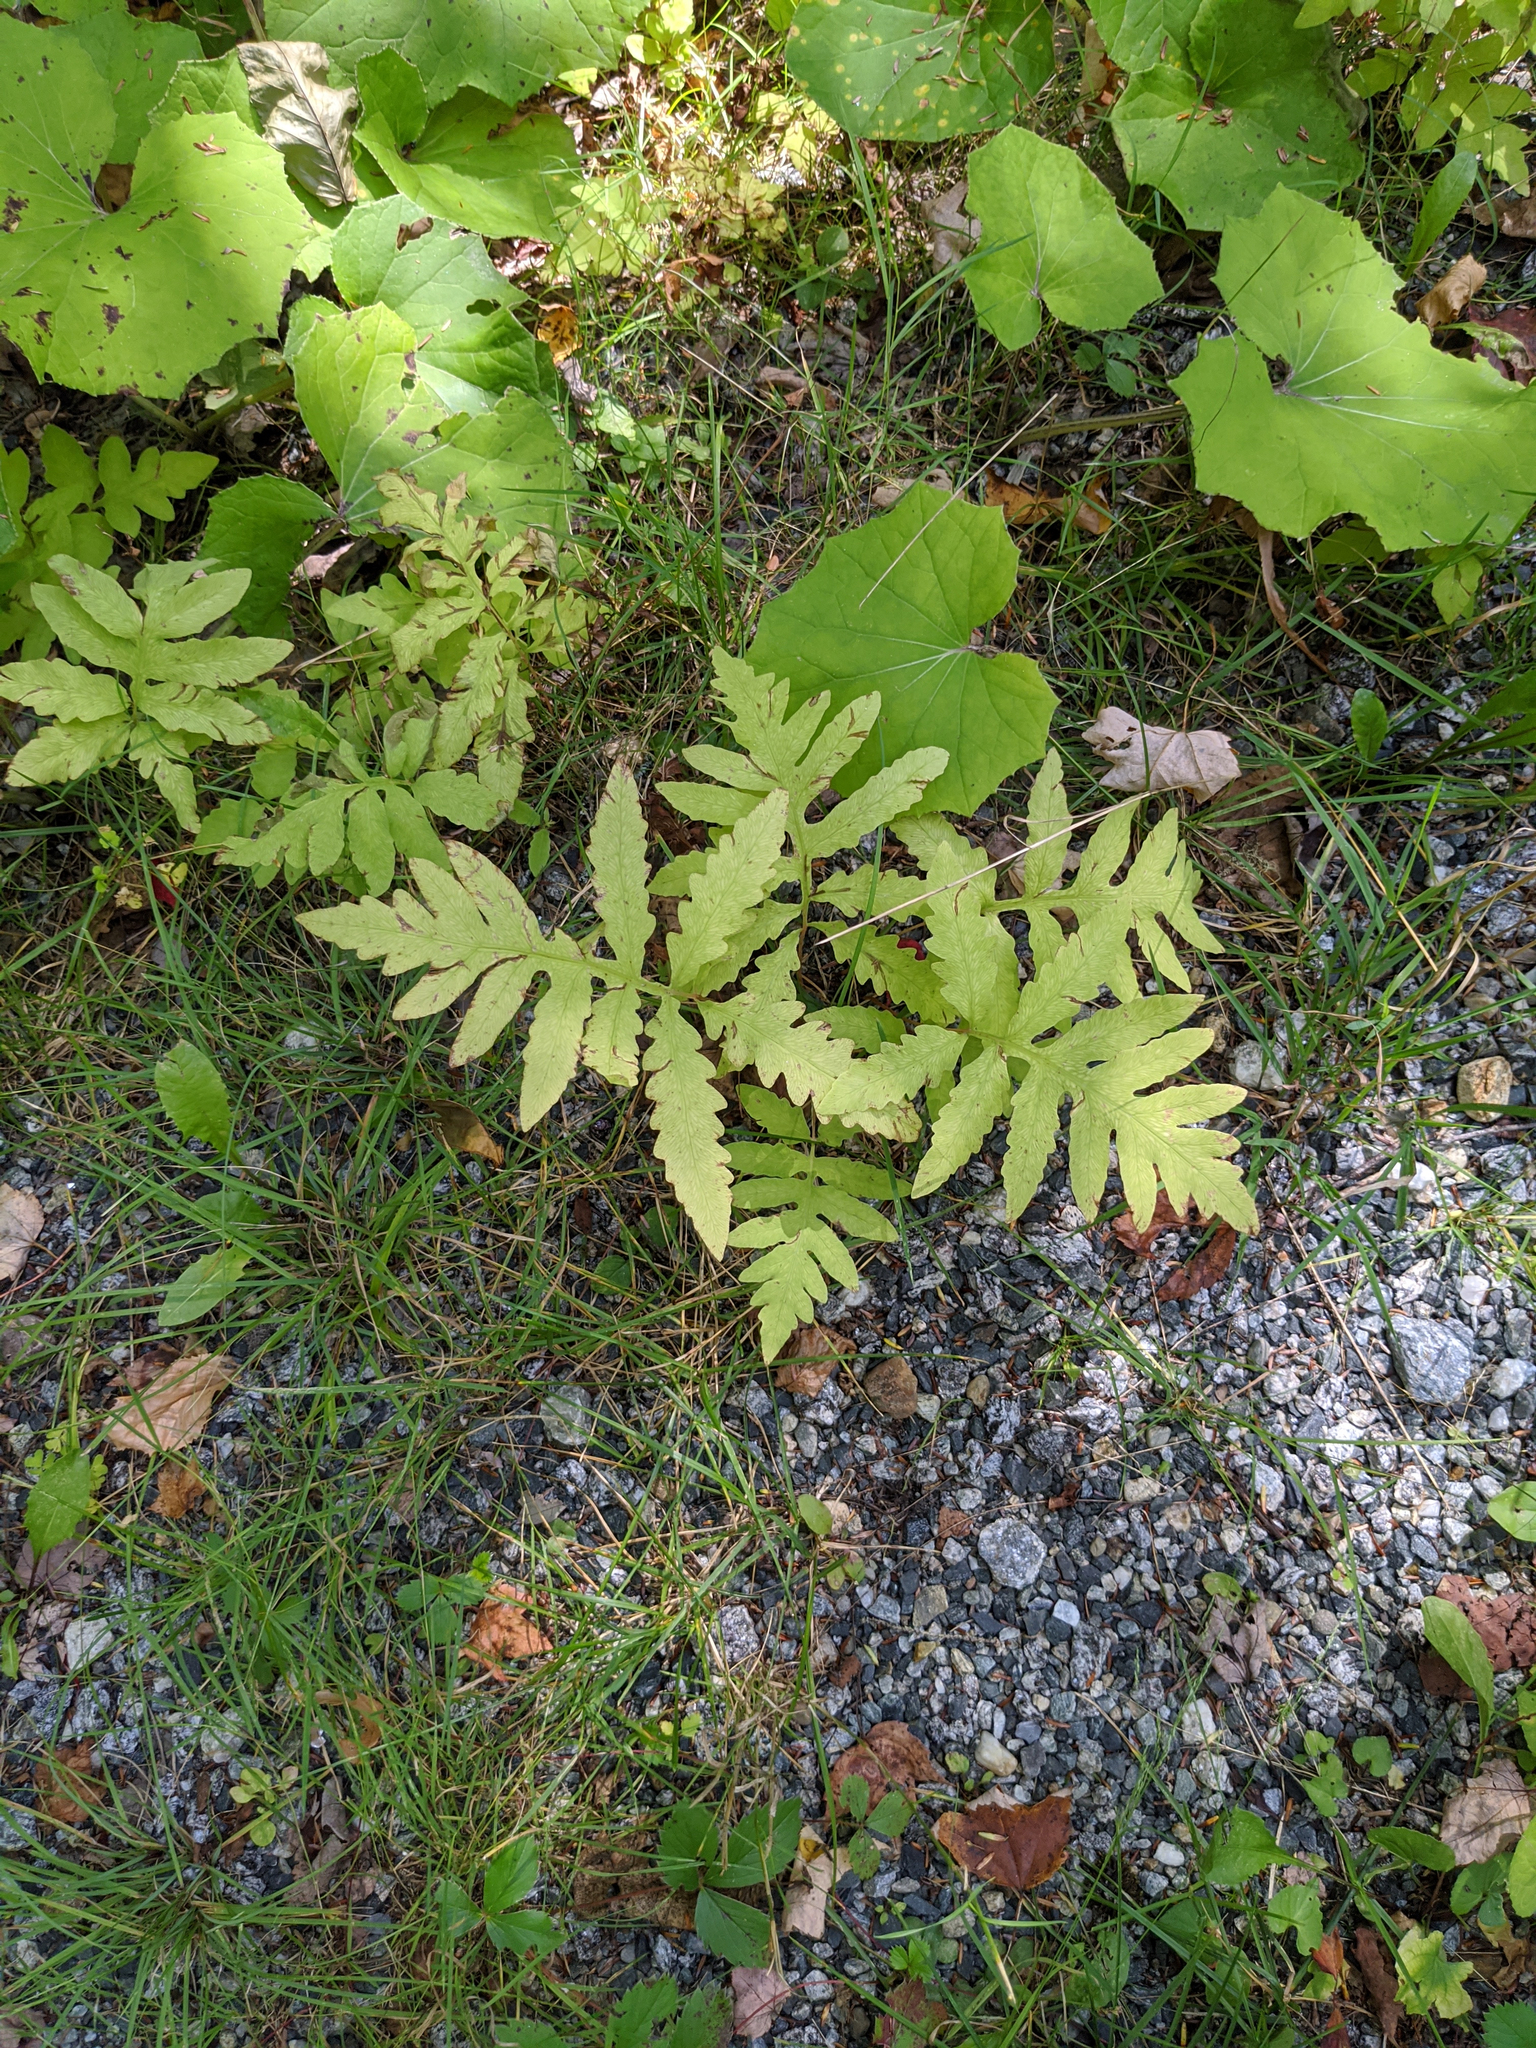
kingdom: Plantae
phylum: Tracheophyta
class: Polypodiopsida
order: Polypodiales
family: Onocleaceae
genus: Onoclea
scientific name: Onoclea sensibilis
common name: Sensitive fern
